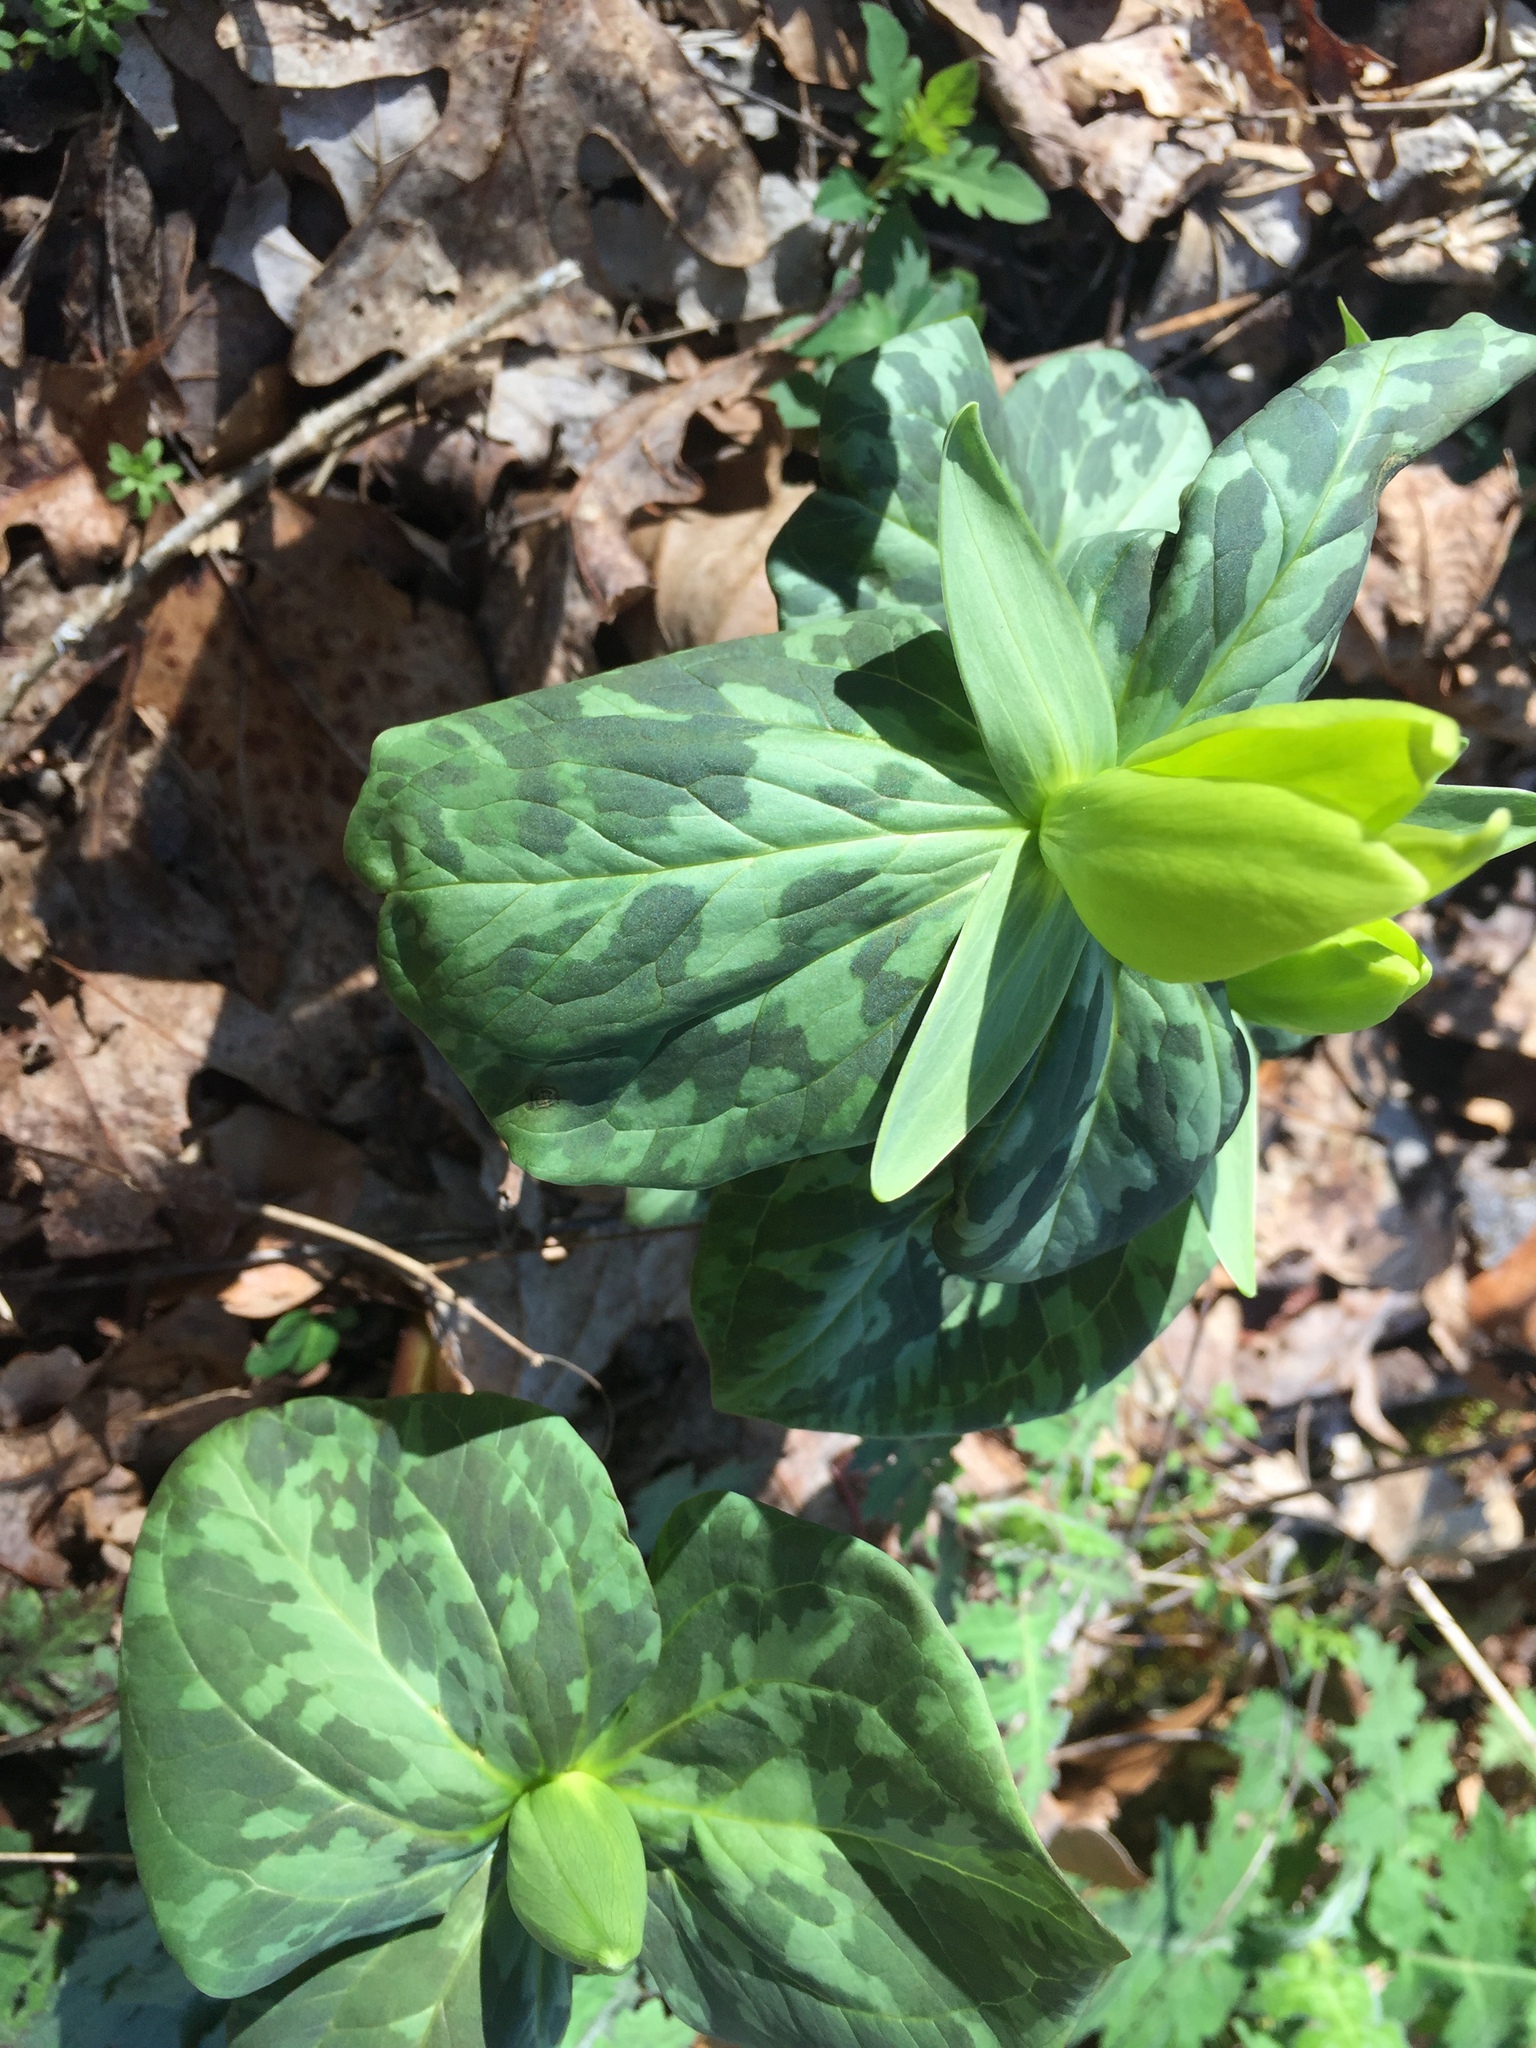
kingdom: Plantae
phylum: Tracheophyta
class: Liliopsida
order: Liliales
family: Melanthiaceae
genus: Trillium
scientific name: Trillium cuneatum
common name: Cuneate trillium
